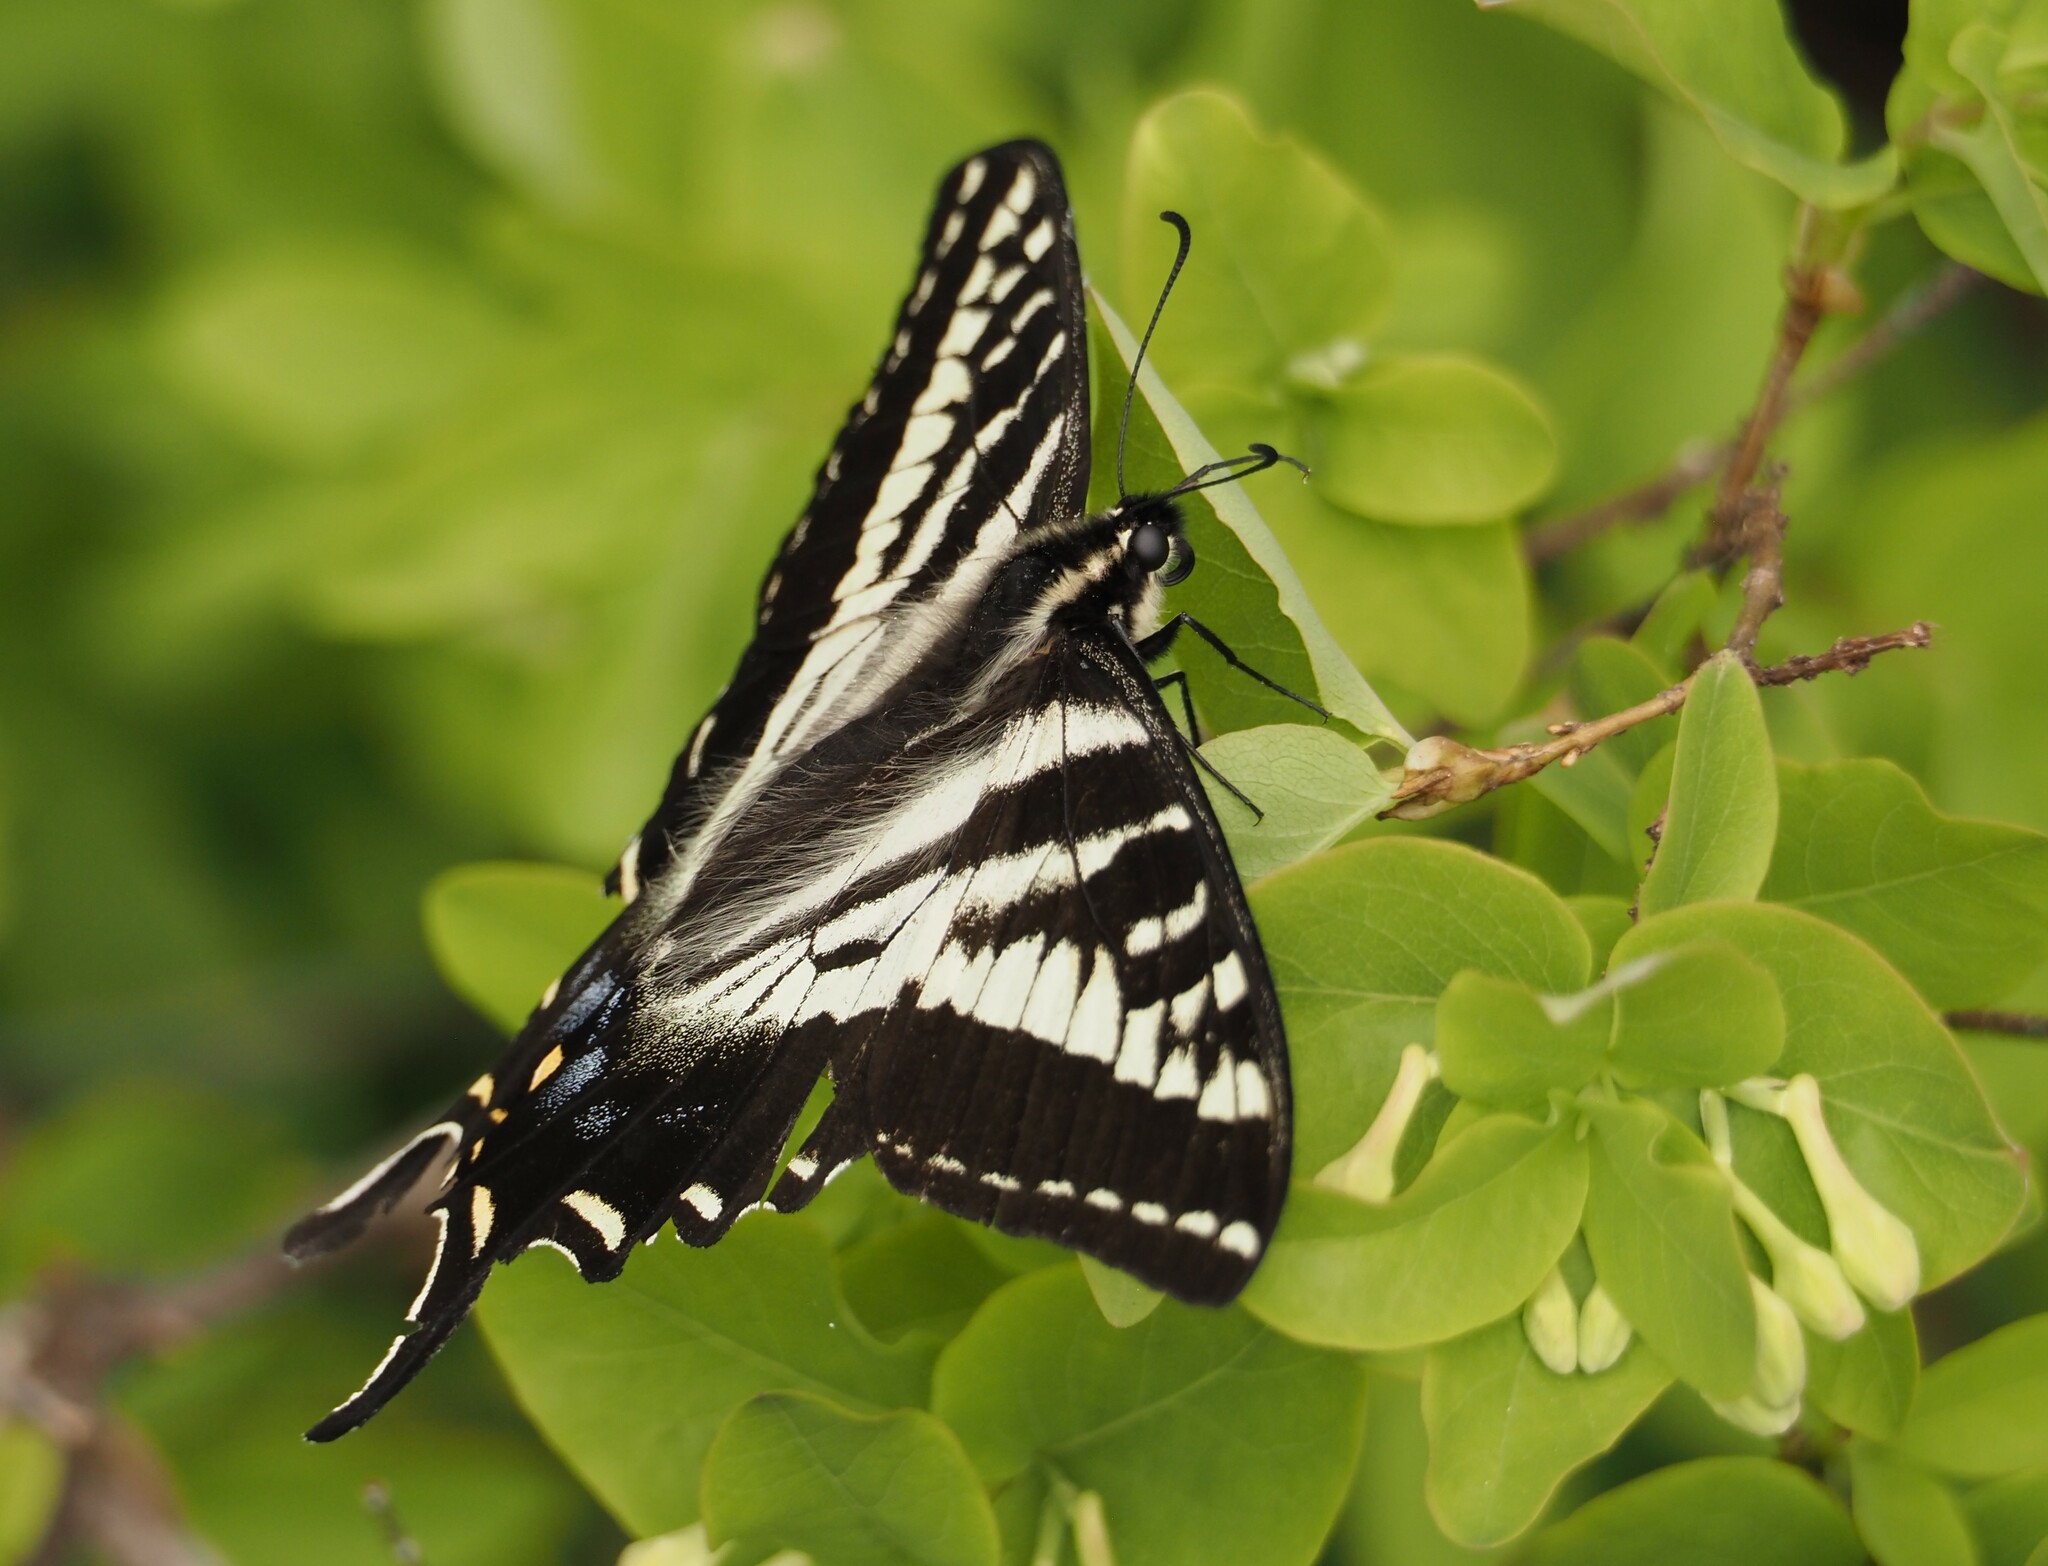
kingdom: Animalia
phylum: Arthropoda
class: Insecta
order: Lepidoptera
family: Papilionidae
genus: Papilio
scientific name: Papilio eurymedon
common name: Pale tiger swallowtail
